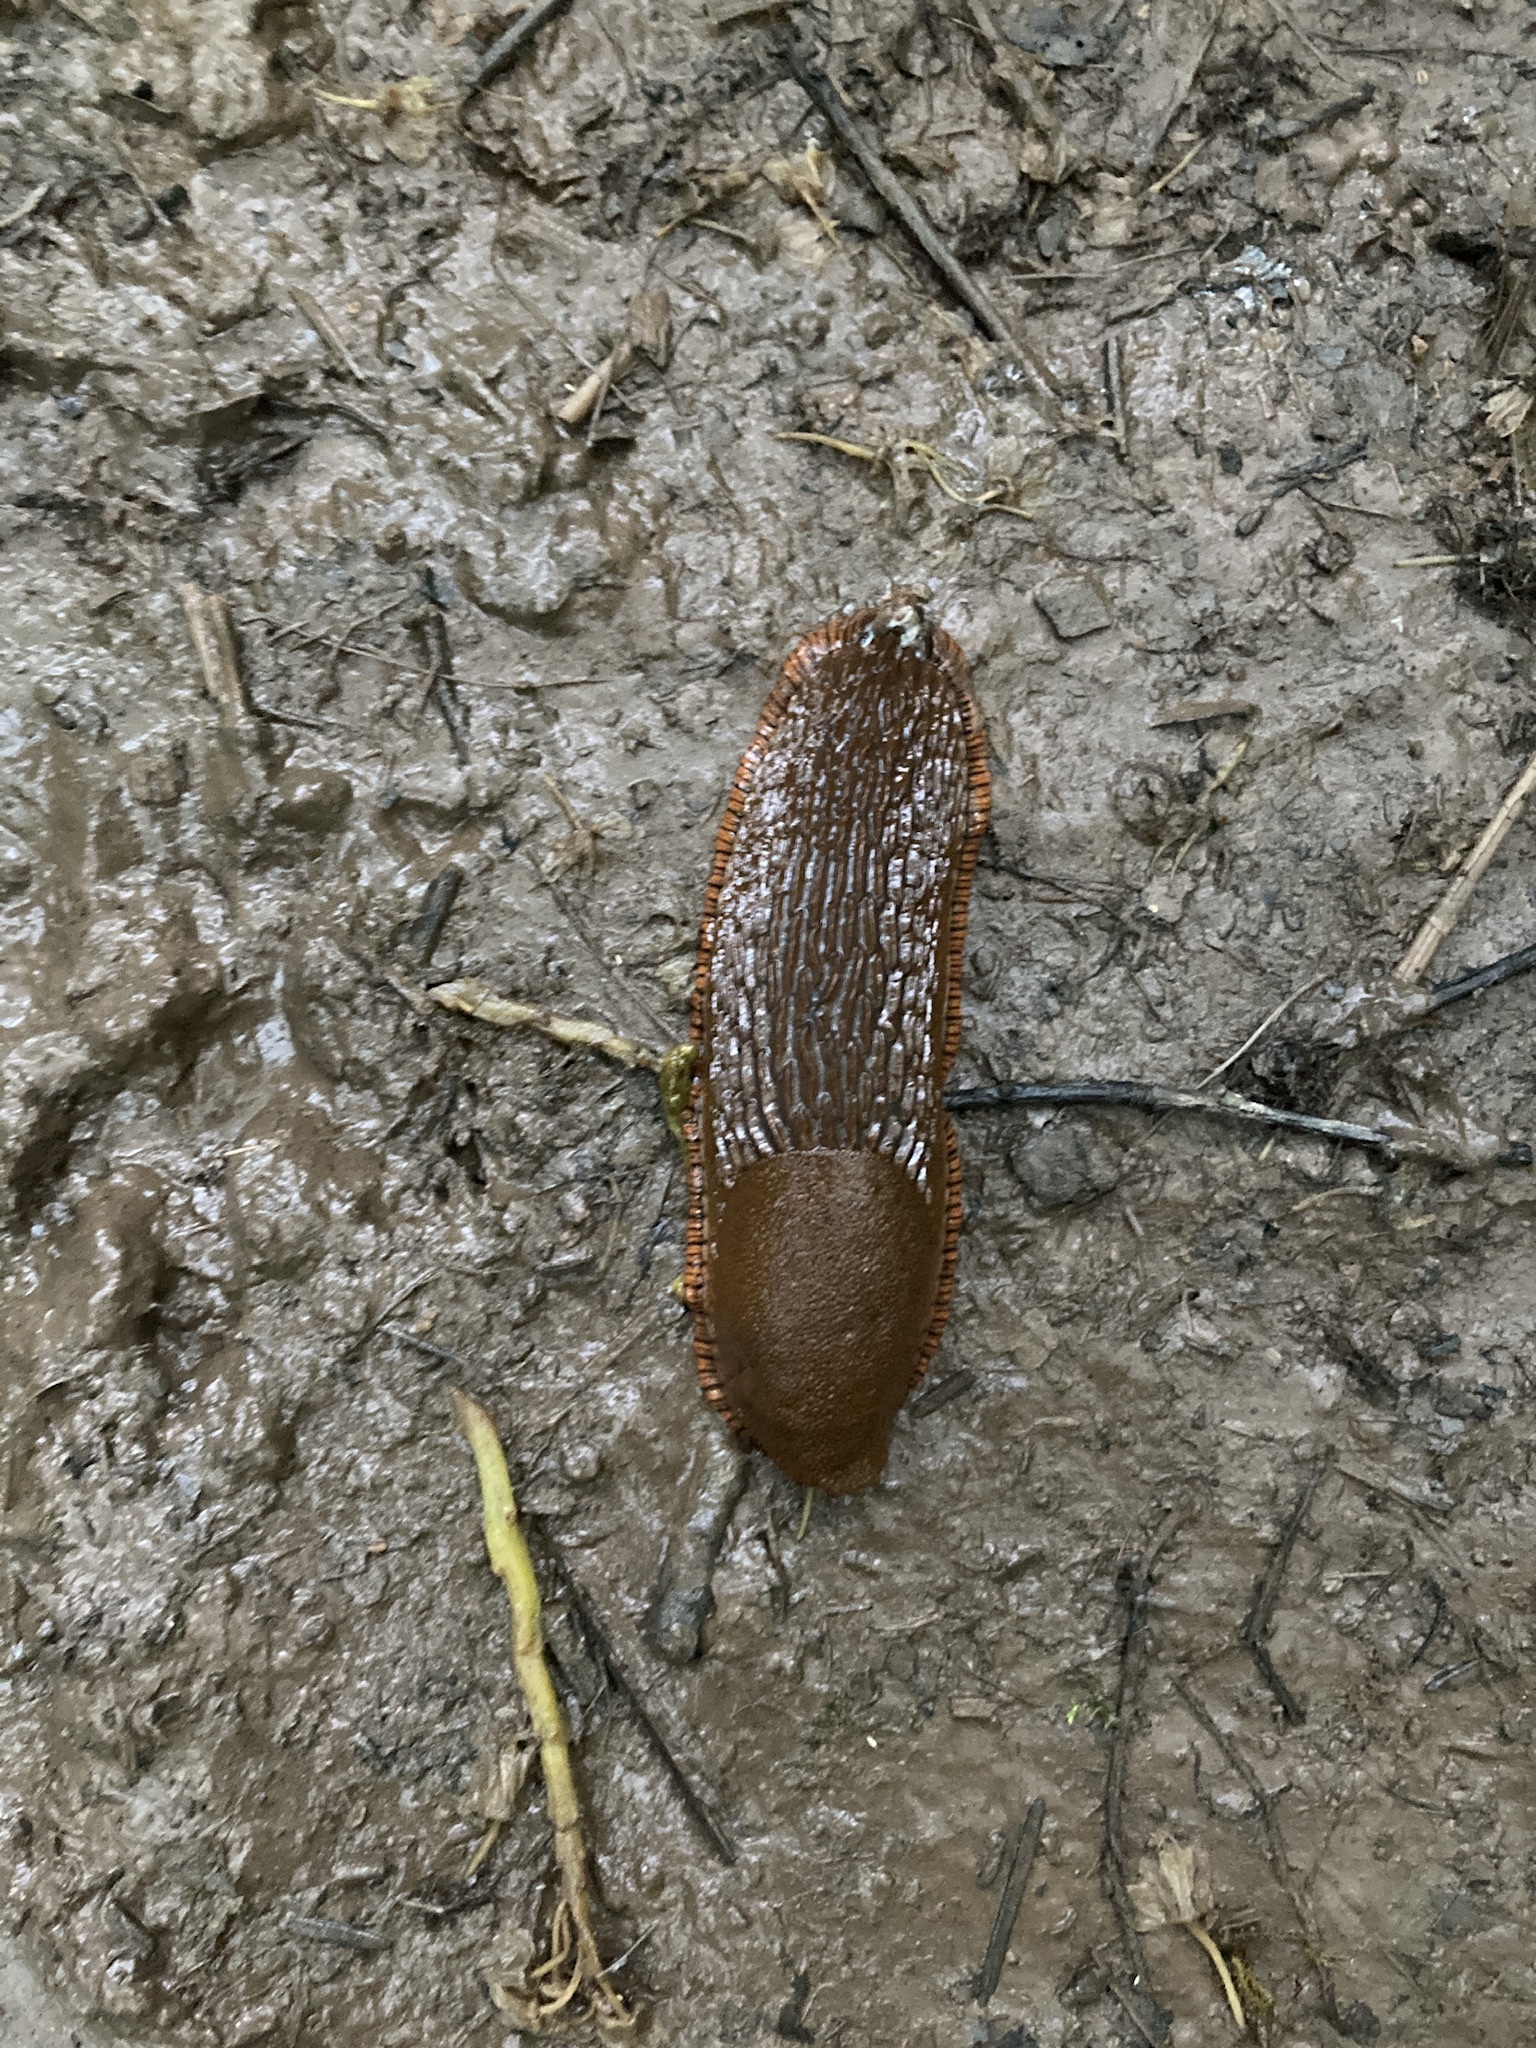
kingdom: Animalia
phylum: Mollusca
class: Gastropoda
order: Stylommatophora
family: Arionidae
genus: Arion
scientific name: Arion rufus
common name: Chocolate arion
